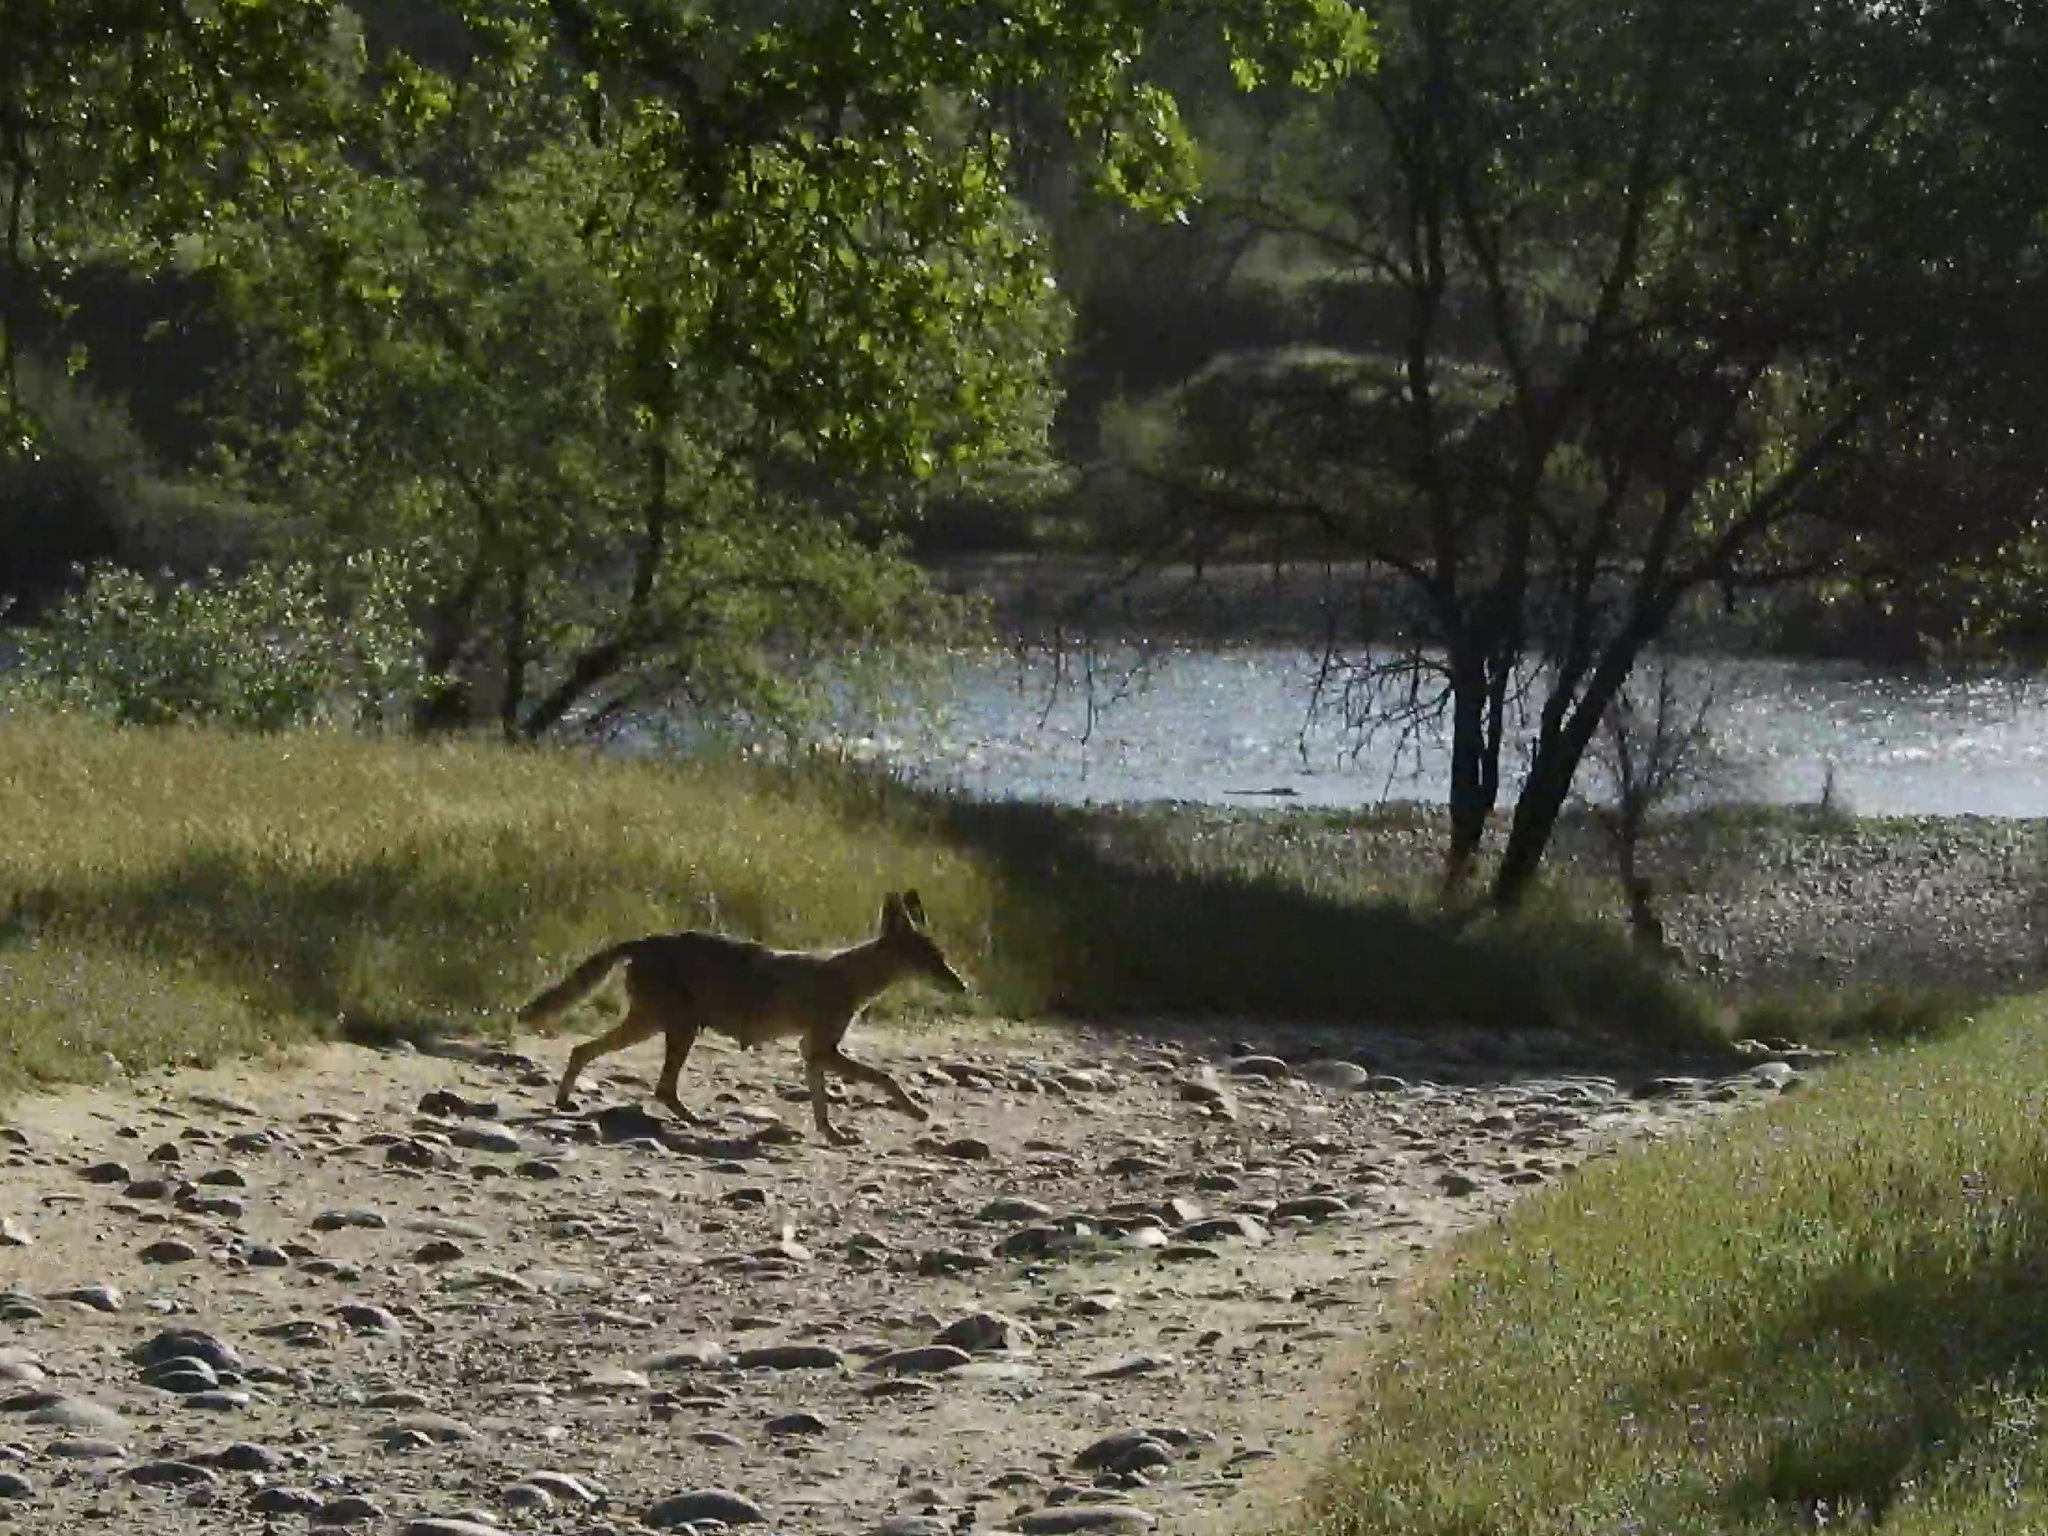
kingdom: Animalia
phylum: Chordata
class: Mammalia
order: Carnivora
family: Canidae
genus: Canis
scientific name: Canis latrans
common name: Coyote
